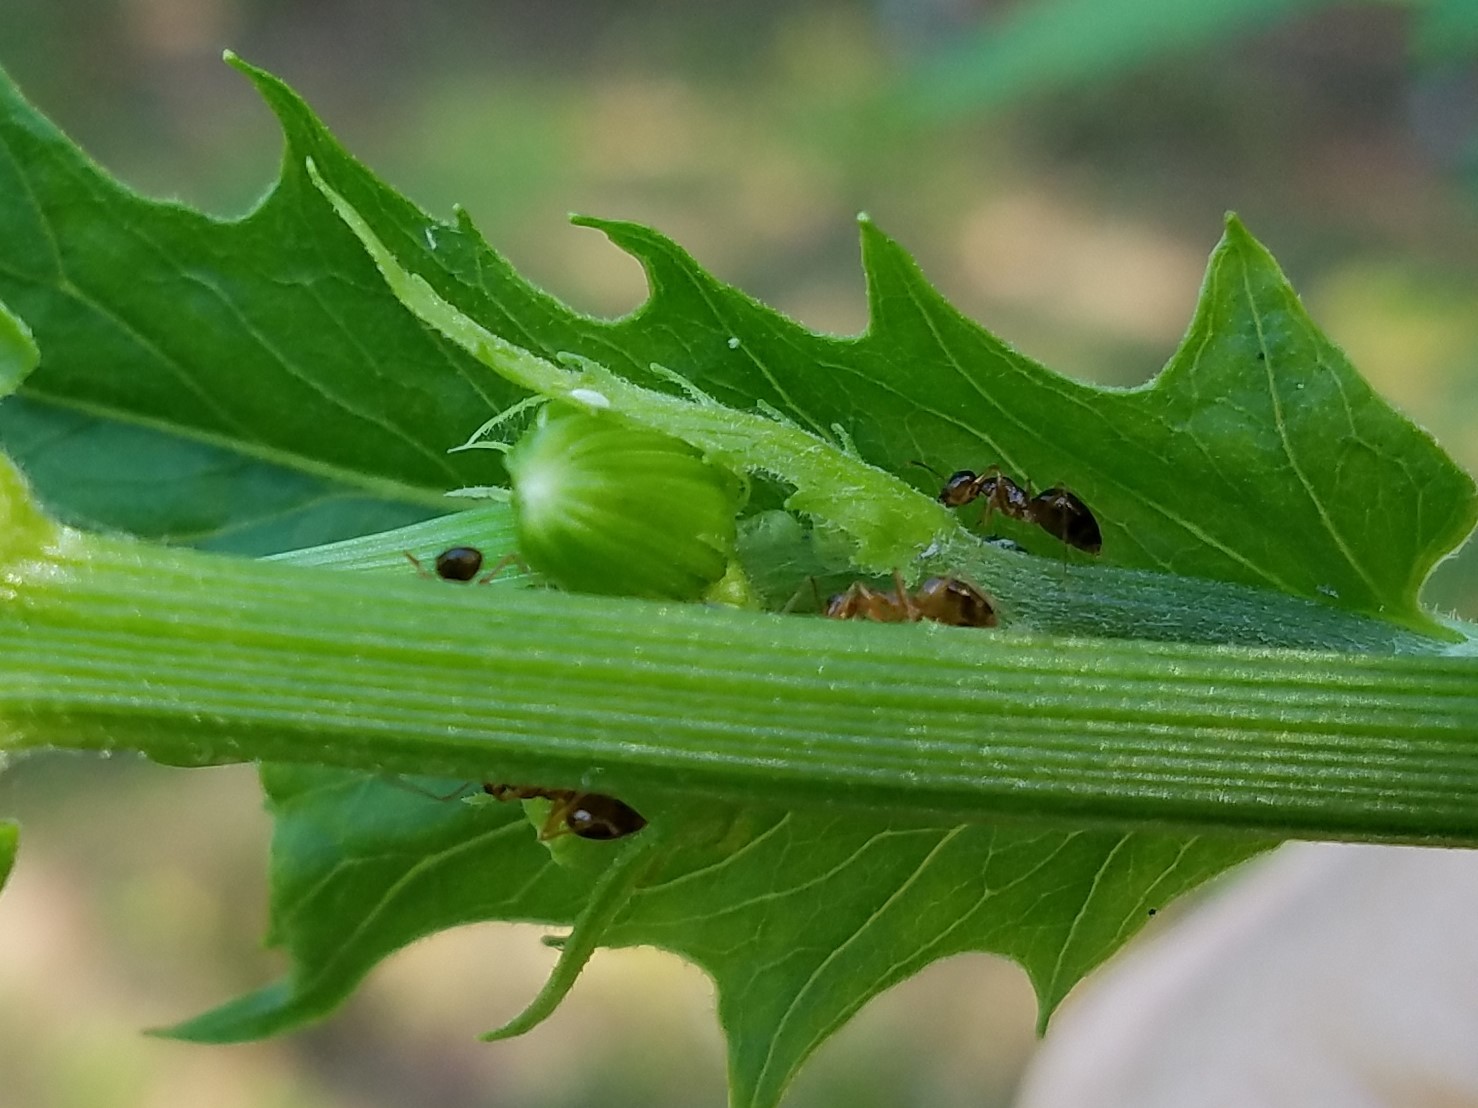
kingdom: Animalia
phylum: Arthropoda
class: Insecta
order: Hymenoptera
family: Formicidae
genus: Prenolepis
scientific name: Prenolepis imparis
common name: Small honey ant
